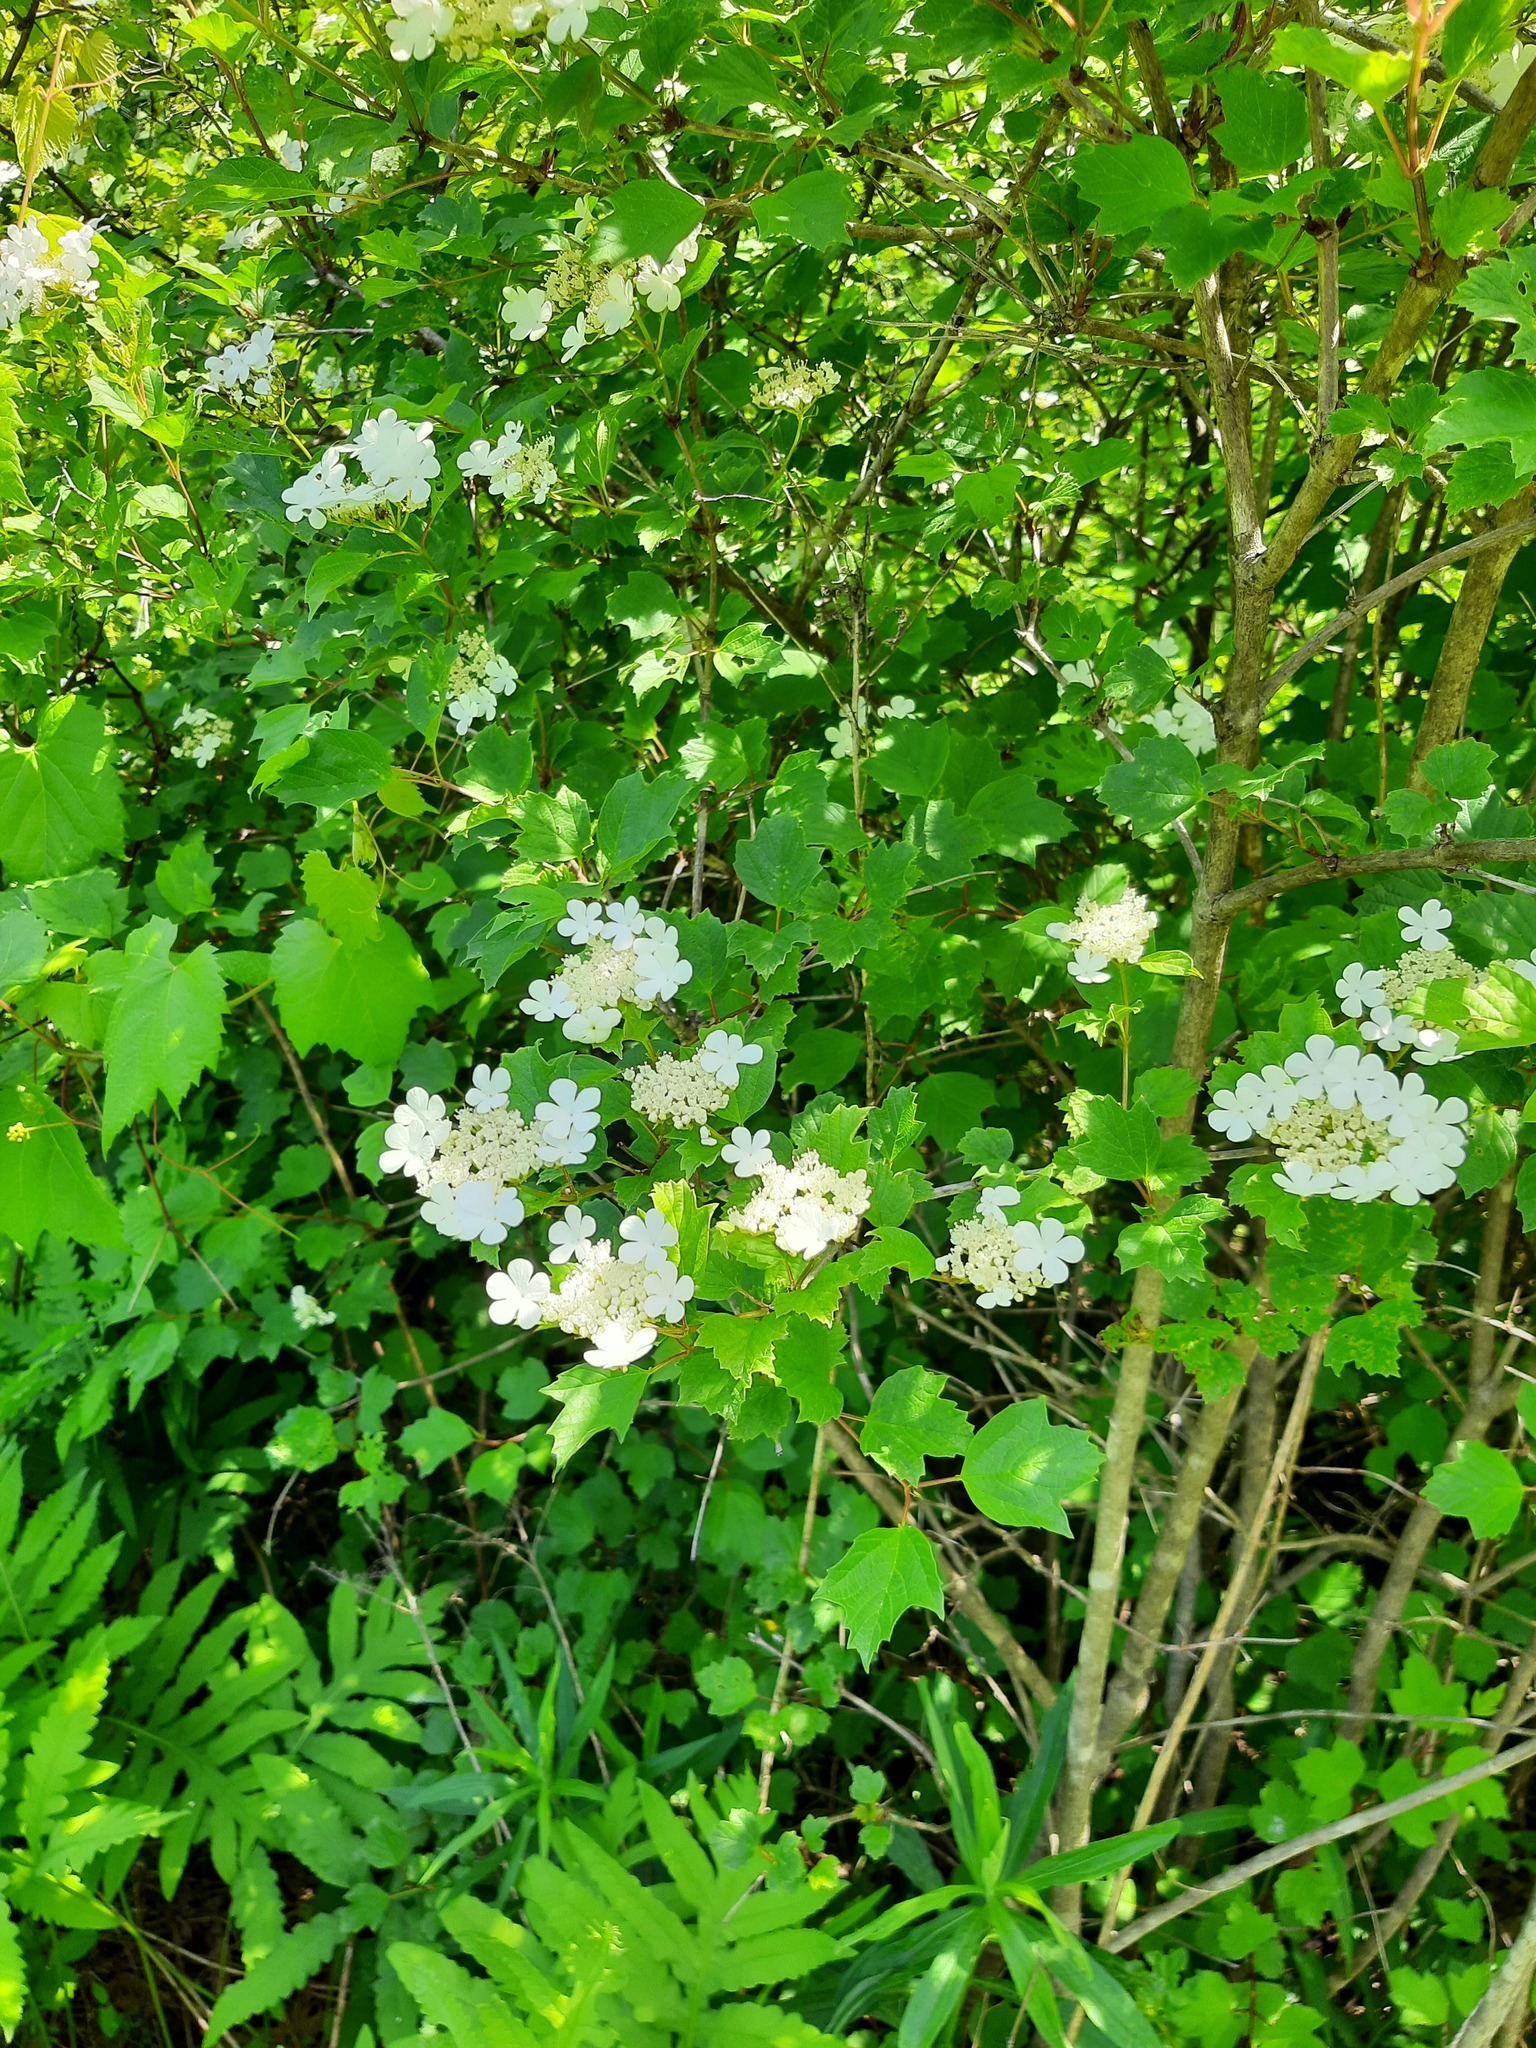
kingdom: Plantae
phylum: Tracheophyta
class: Magnoliopsida
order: Dipsacales
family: Viburnaceae
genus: Viburnum
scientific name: Viburnum opulus
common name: Guelder-rose
